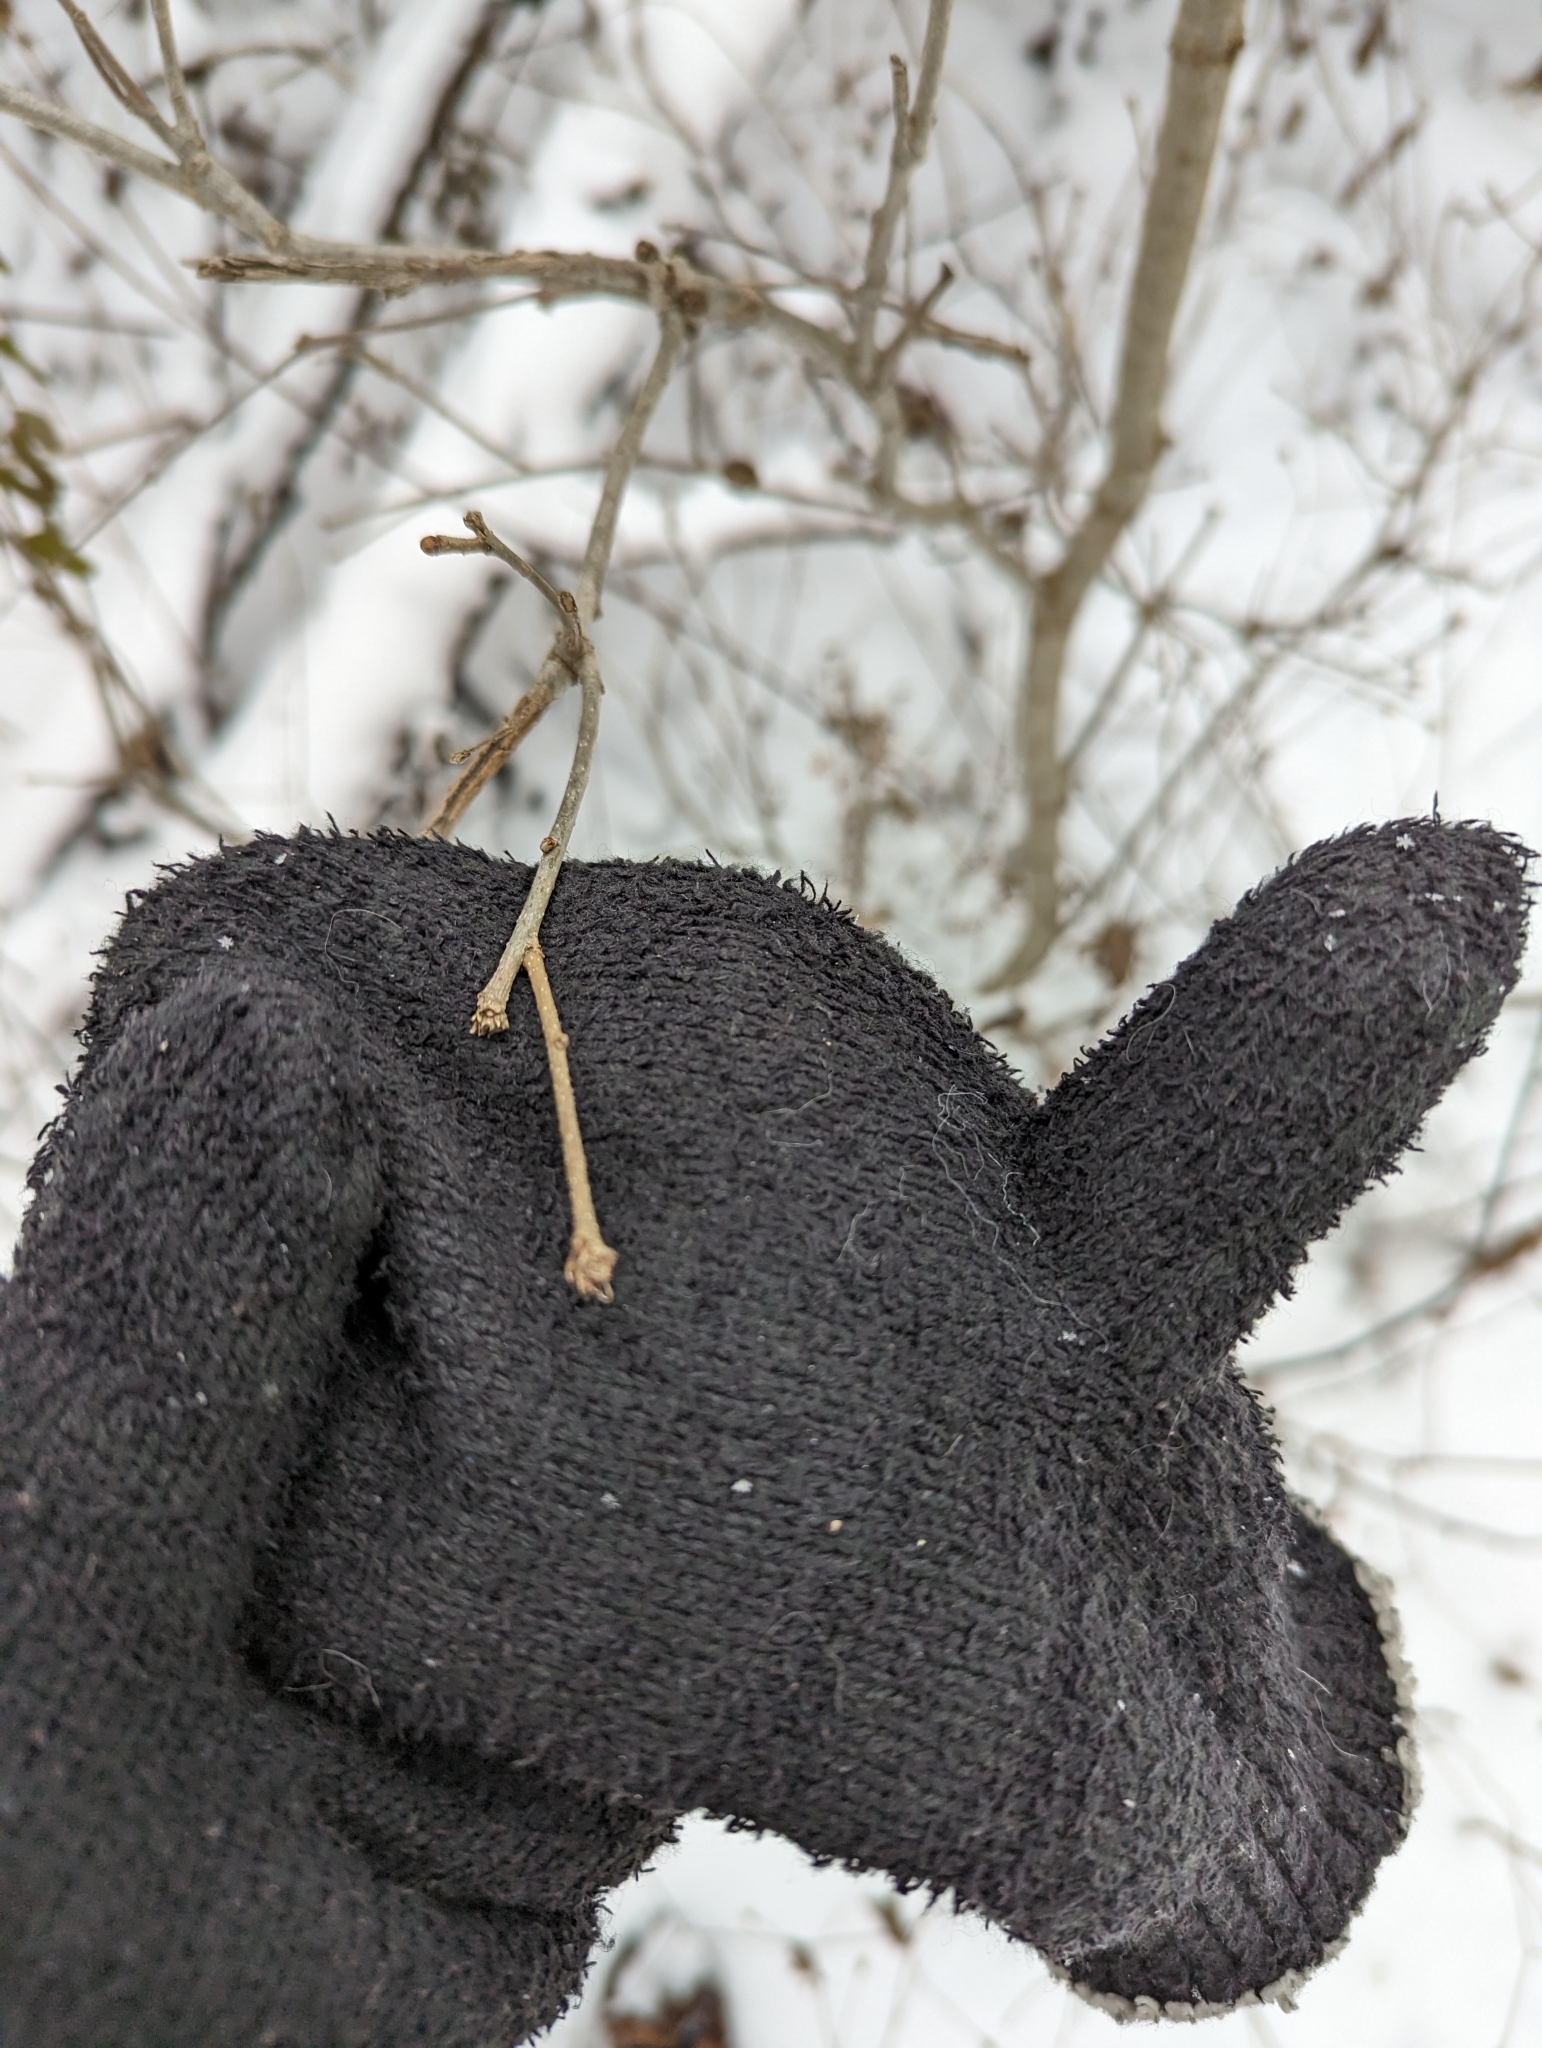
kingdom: Animalia
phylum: Arthropoda
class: Insecta
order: Hymenoptera
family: Cynipidae
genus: Disholcaspis
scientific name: Disholcaspis
